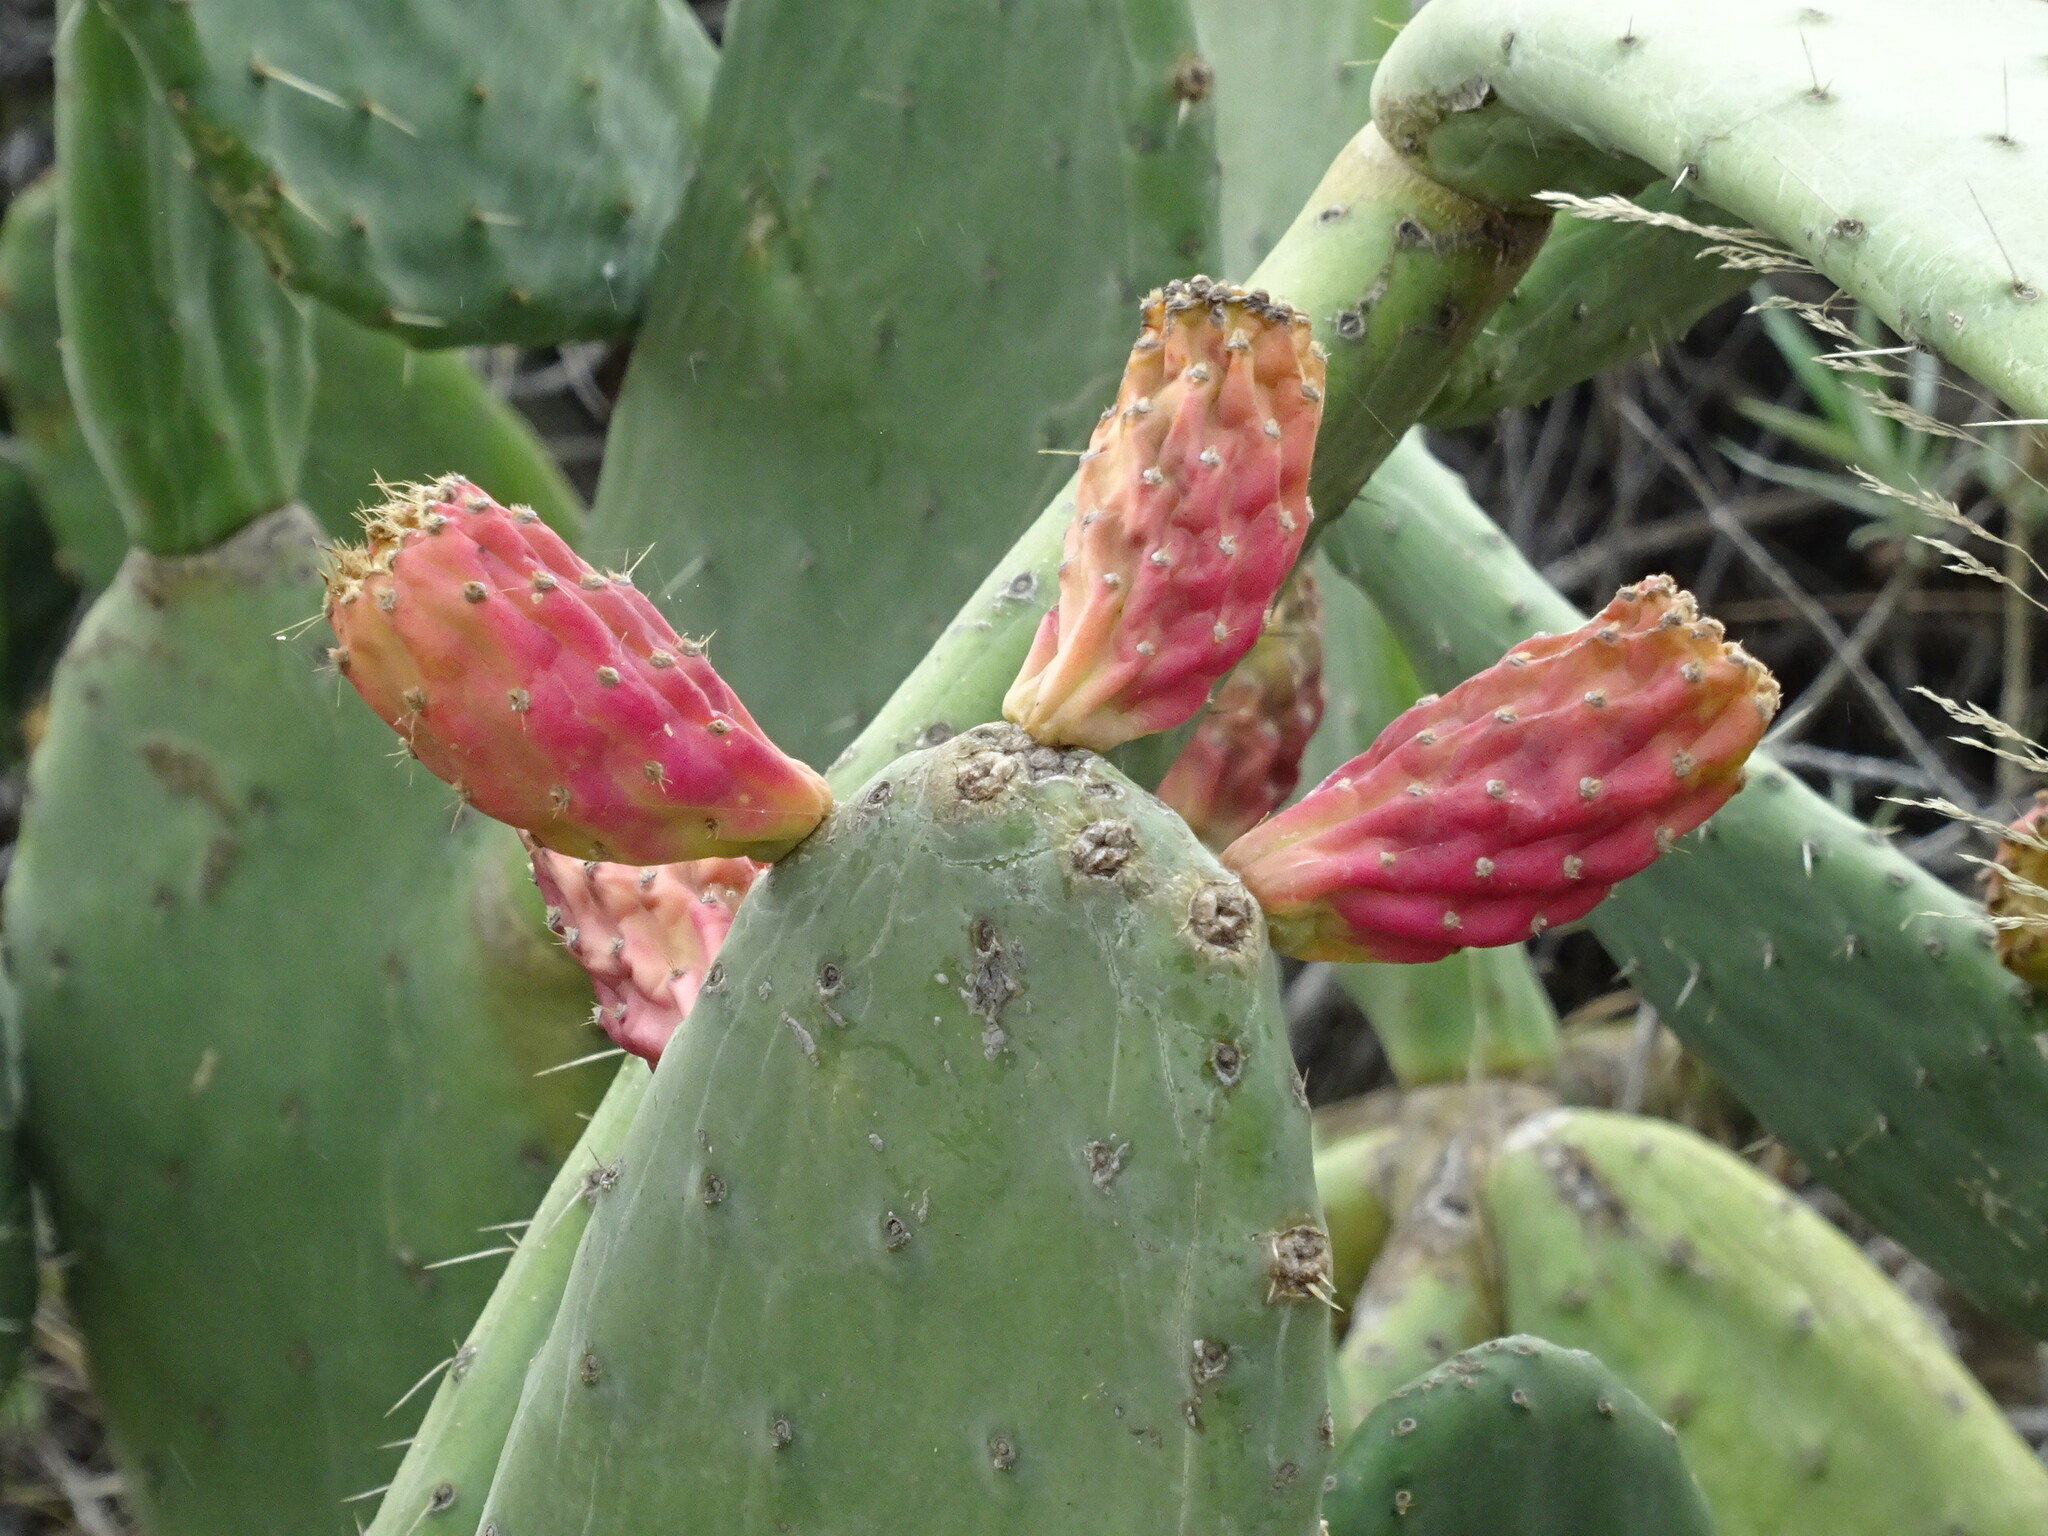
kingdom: Plantae
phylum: Tracheophyta
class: Magnoliopsida
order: Caryophyllales
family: Cactaceae
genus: Opuntia
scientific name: Opuntia ficus-indica
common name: Barbary fig
